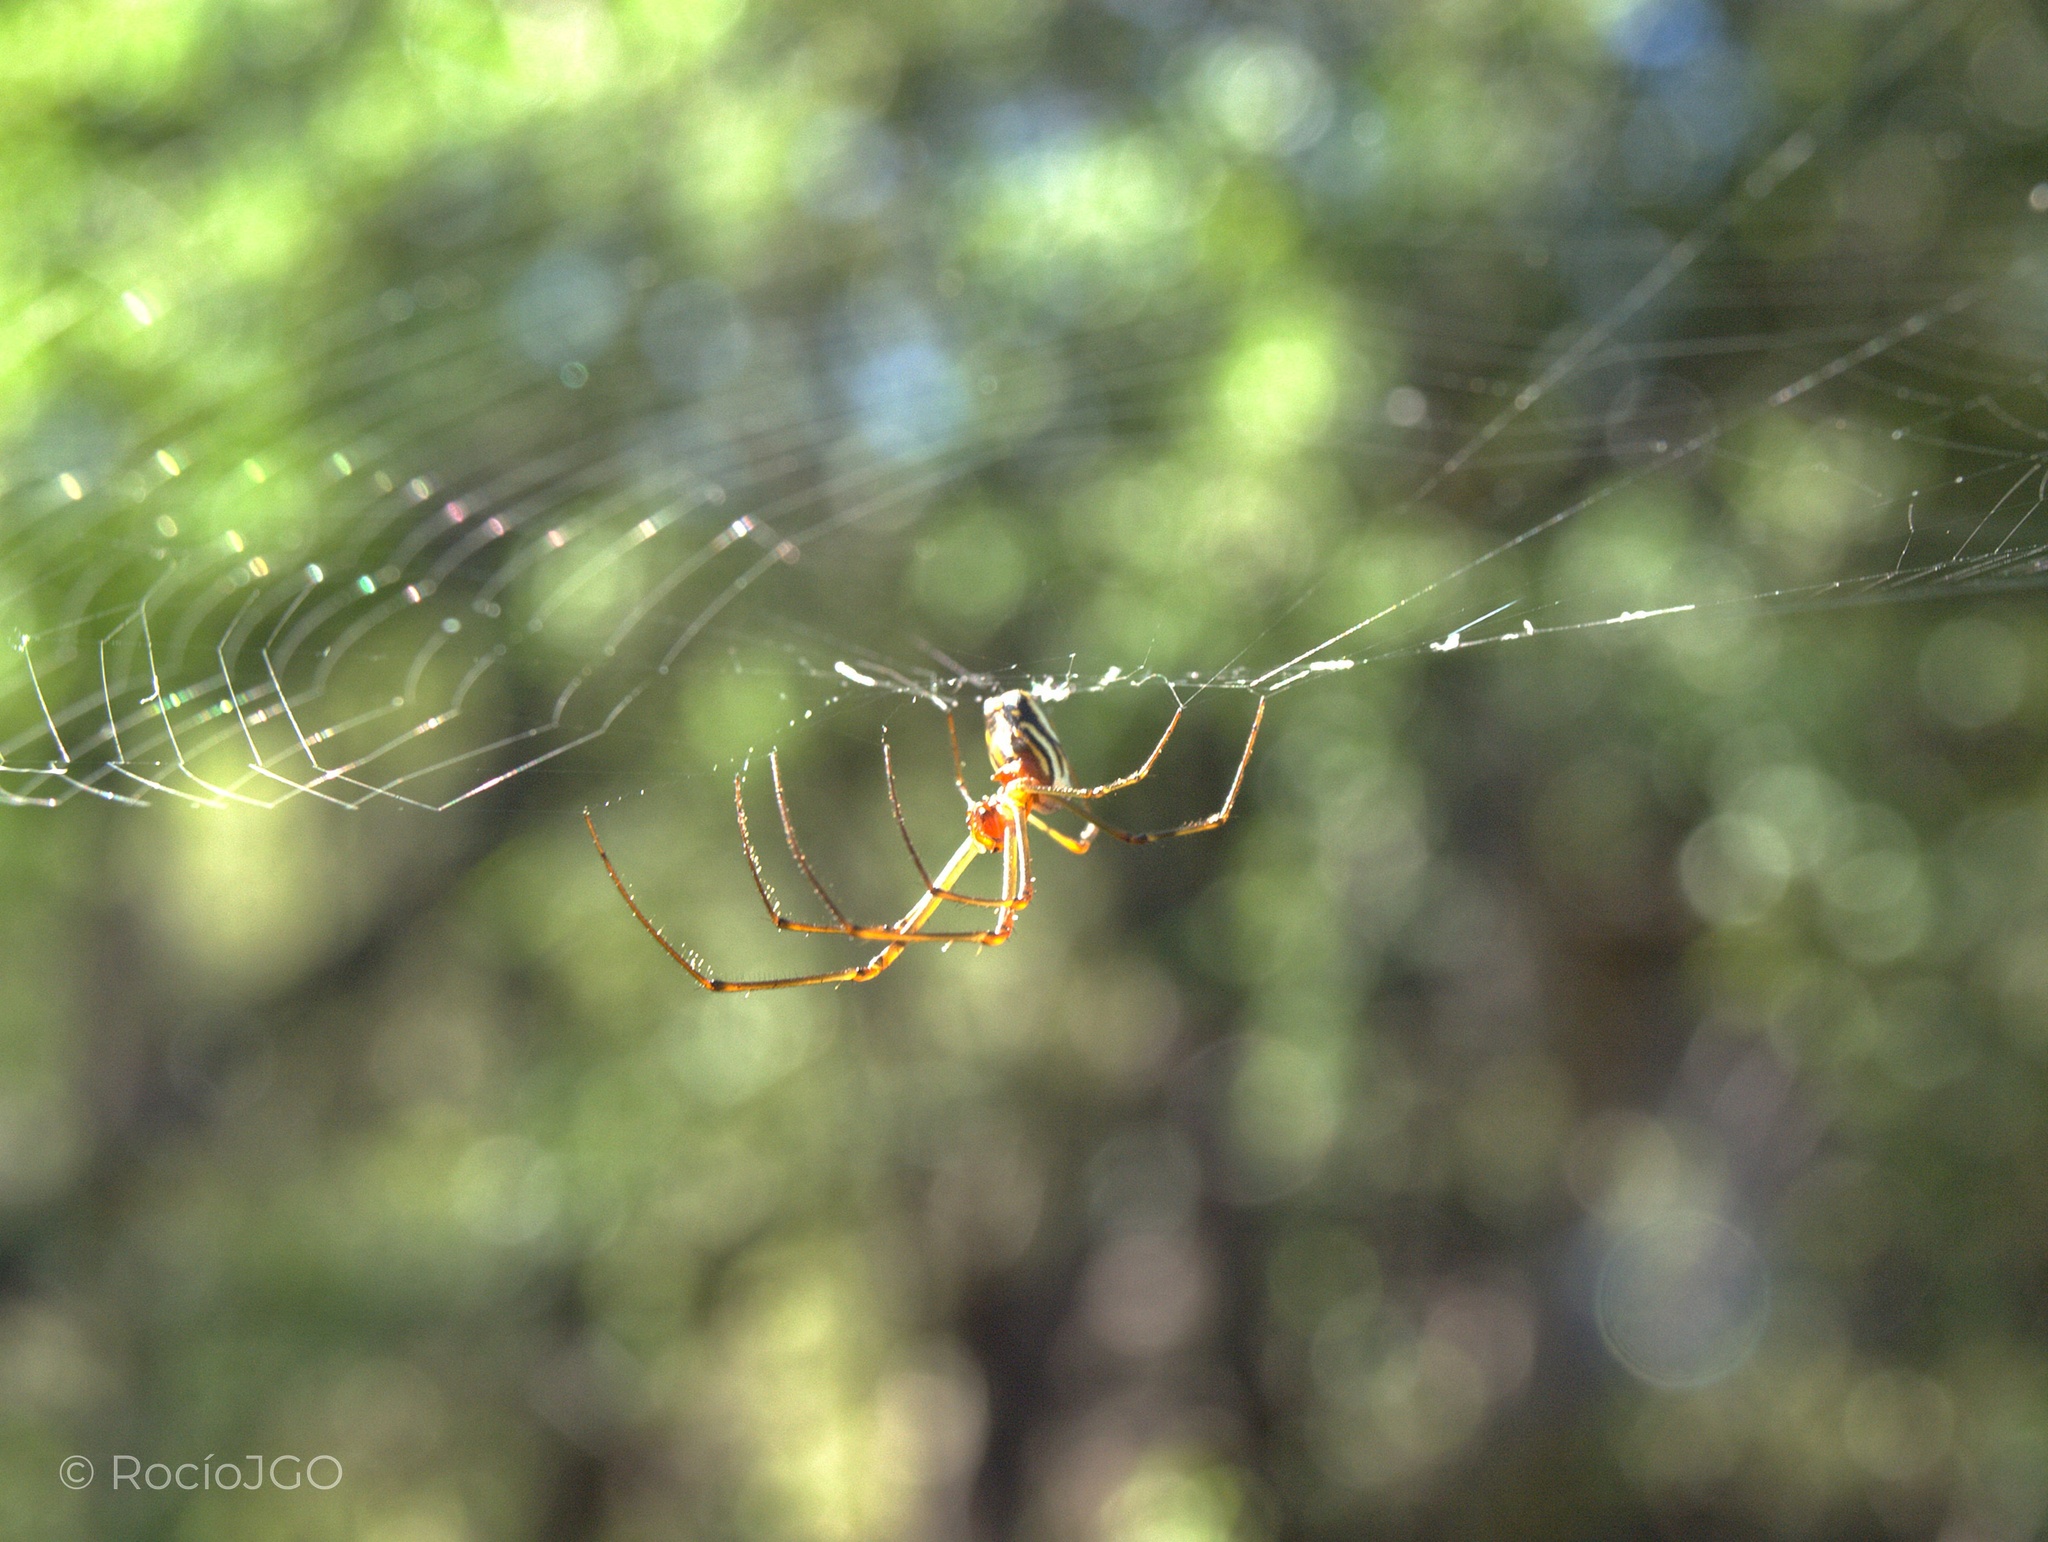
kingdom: Animalia
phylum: Arthropoda
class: Arachnida
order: Araneae
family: Tetragnathidae
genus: Leucauge
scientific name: Leucauge argyra
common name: Longjawed orb weavers
